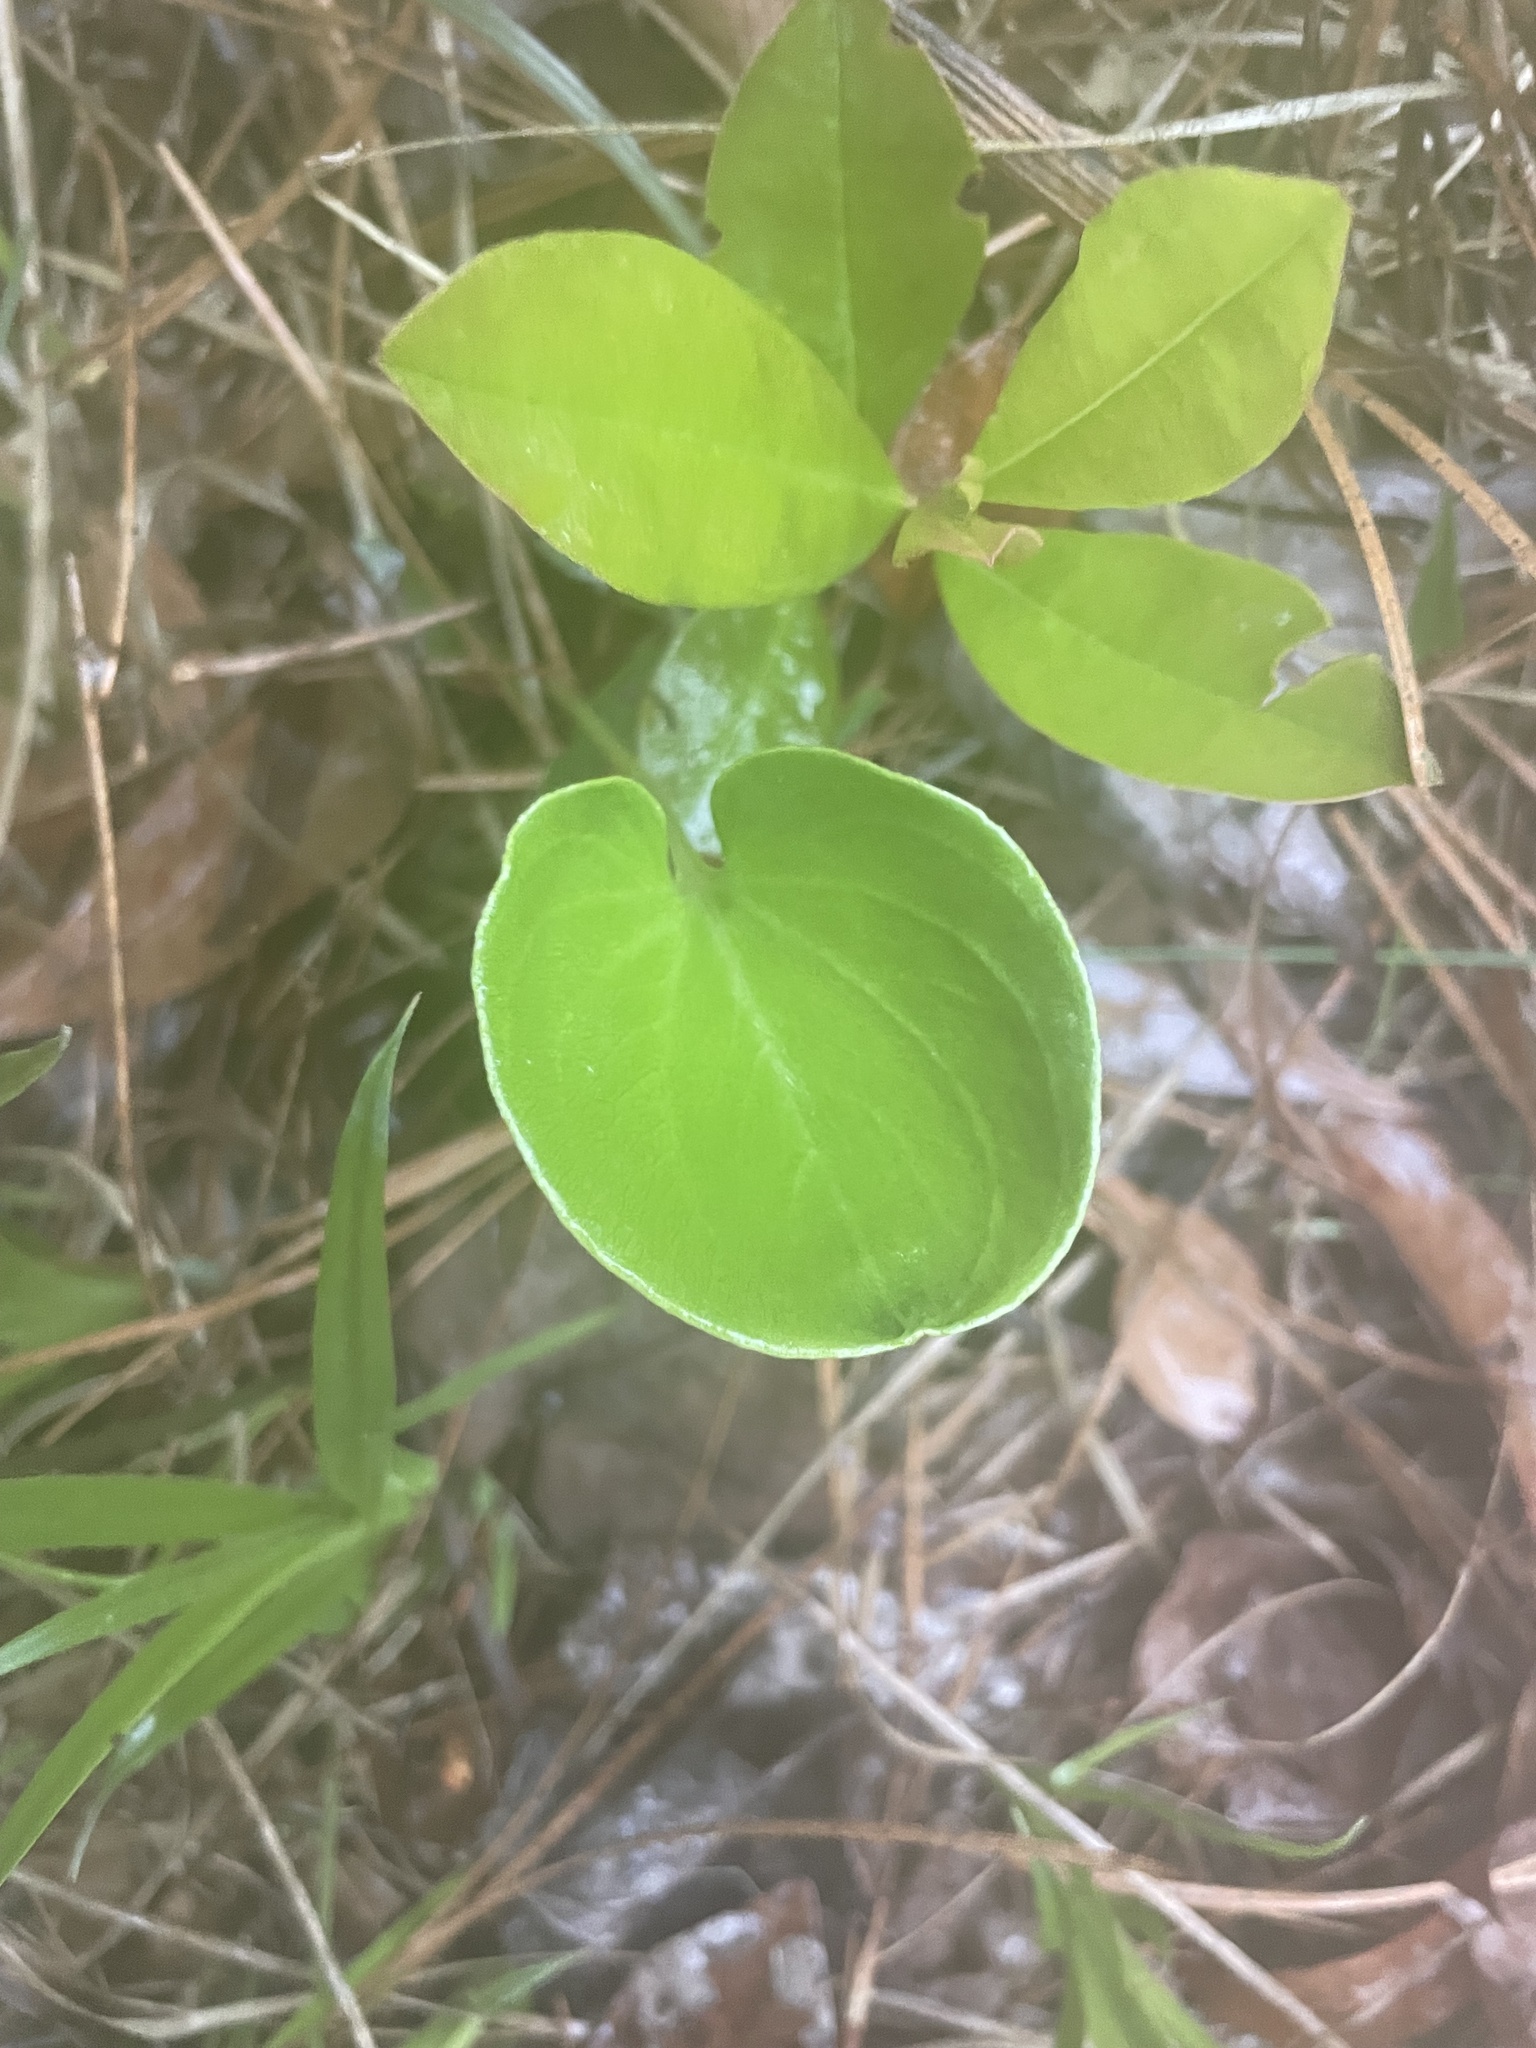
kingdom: Plantae
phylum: Tracheophyta
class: Magnoliopsida
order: Celastrales
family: Parnassiaceae
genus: Parnassia
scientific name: Parnassia caroliniana
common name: Carolina grass of parnassus
